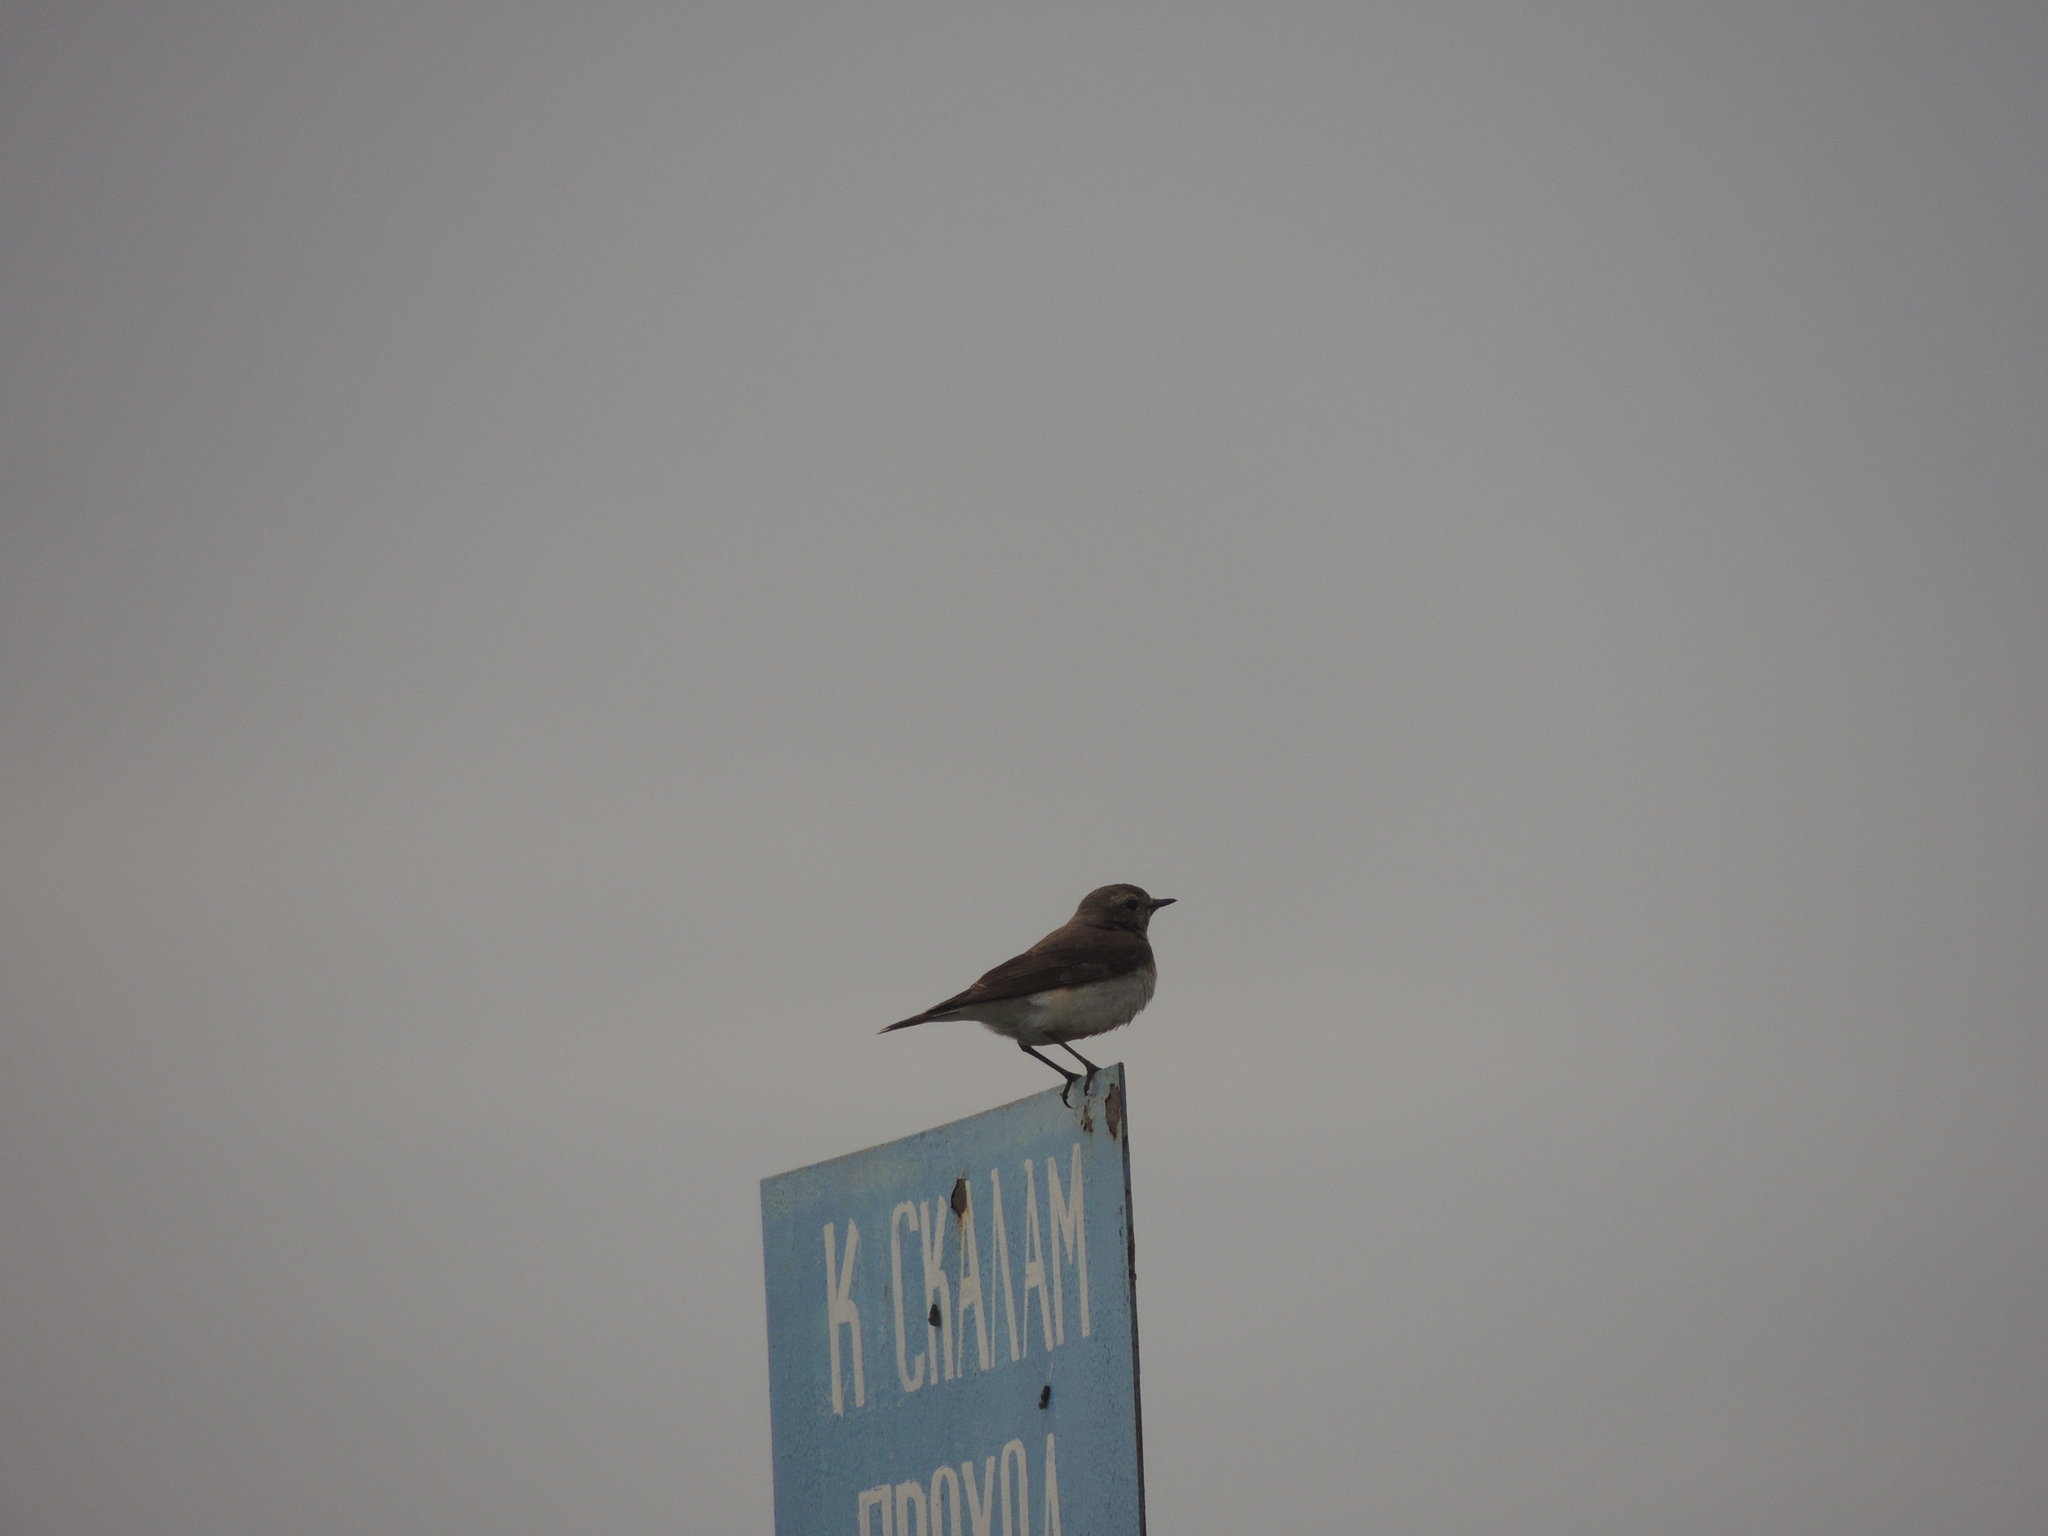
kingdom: Animalia
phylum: Chordata
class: Aves
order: Passeriformes
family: Muscicapidae
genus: Oenanthe
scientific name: Oenanthe pleschanka
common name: Pied wheatear
